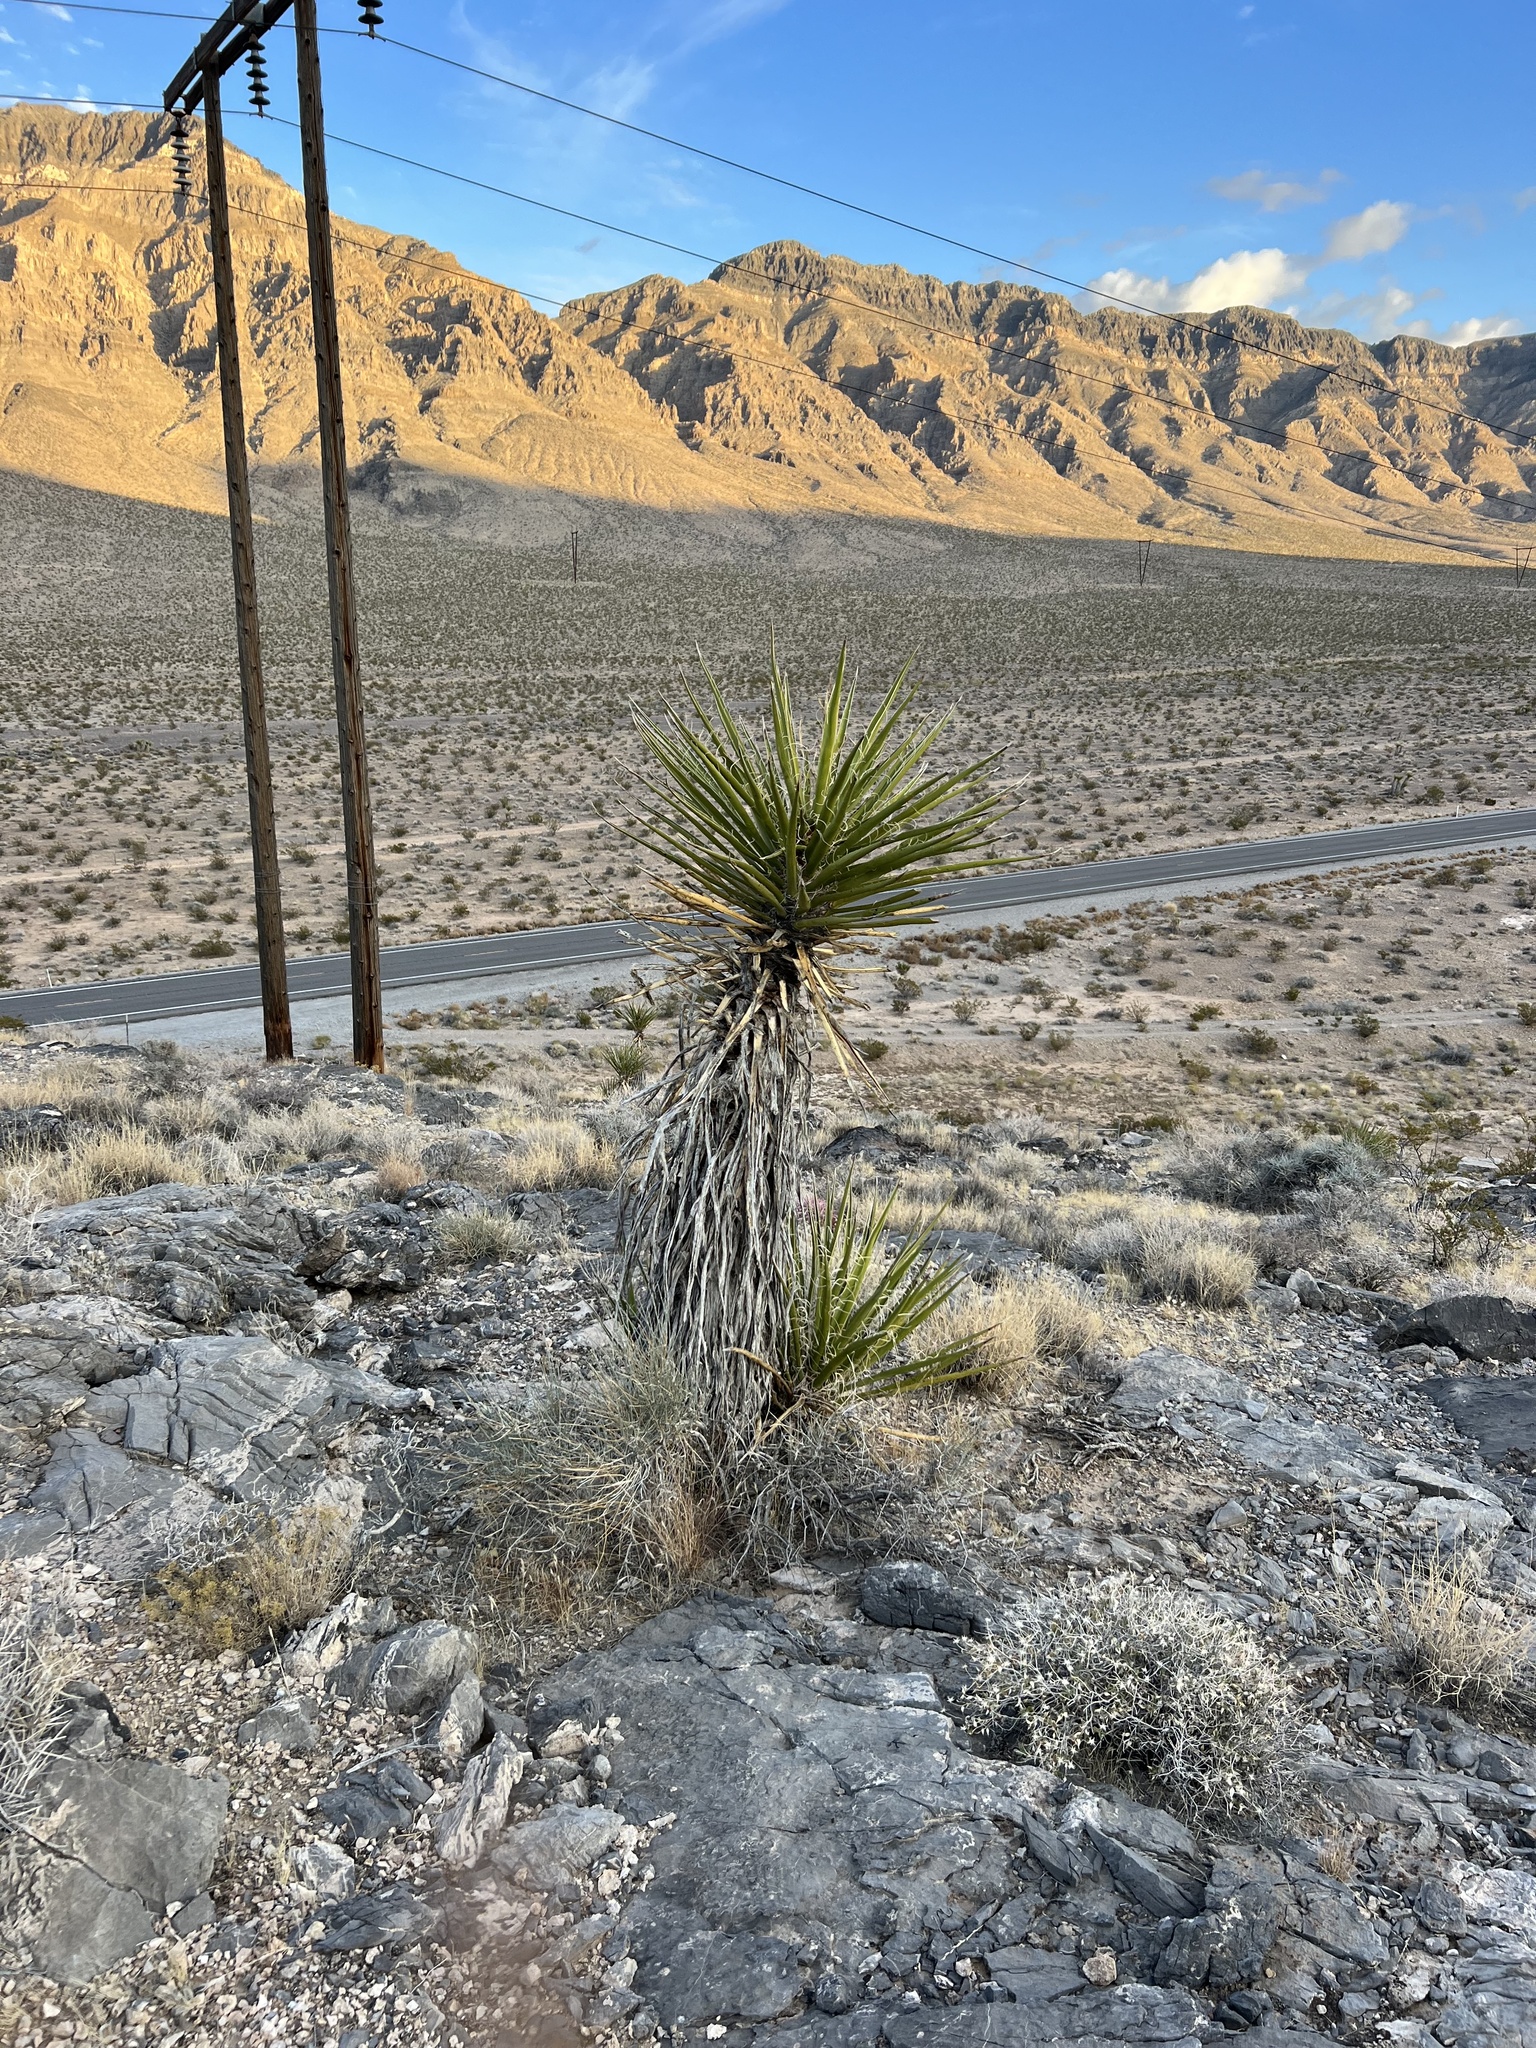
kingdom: Plantae
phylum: Tracheophyta
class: Liliopsida
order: Asparagales
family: Asparagaceae
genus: Yucca
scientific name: Yucca schidigera
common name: Mojave yucca
